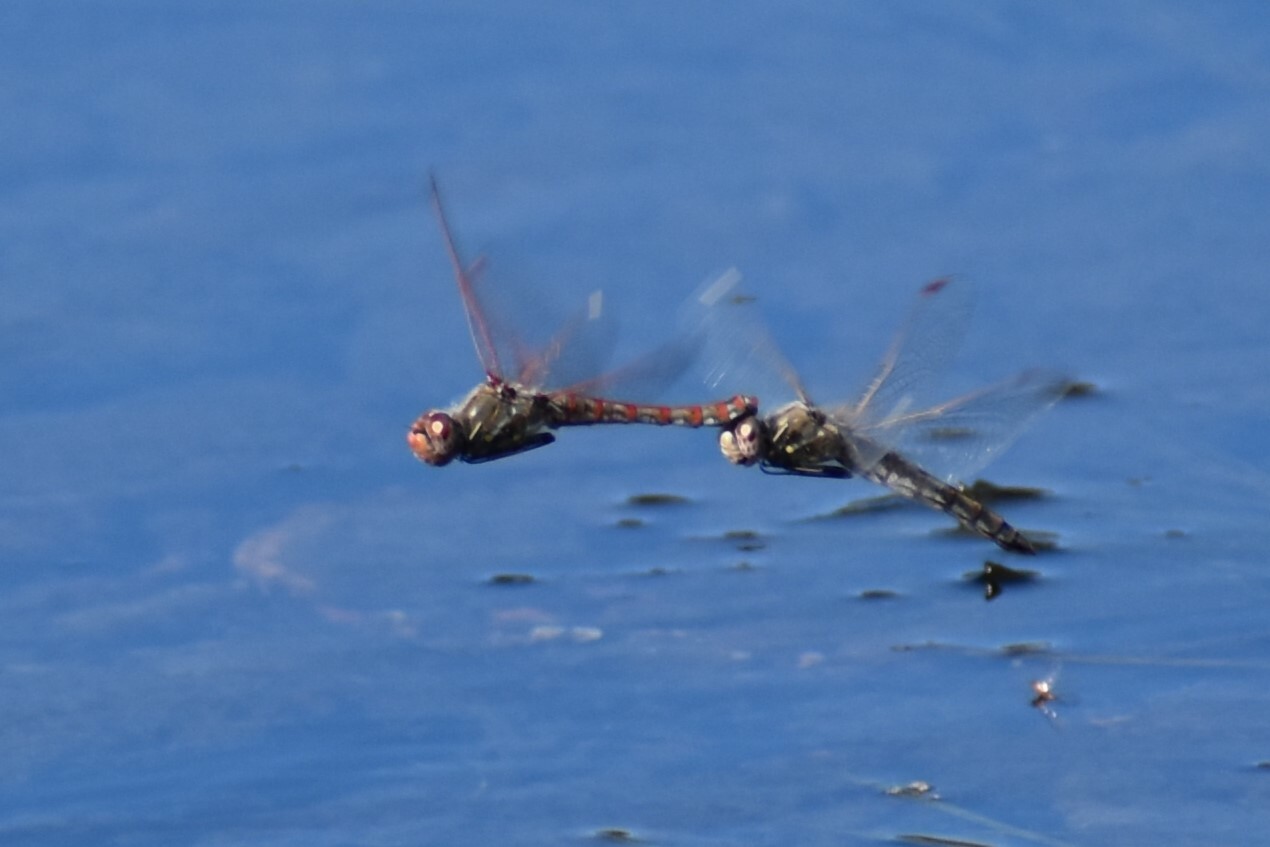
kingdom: Animalia
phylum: Arthropoda
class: Insecta
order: Odonata
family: Libellulidae
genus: Sympetrum
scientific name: Sympetrum corruptum
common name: Variegated meadowhawk
